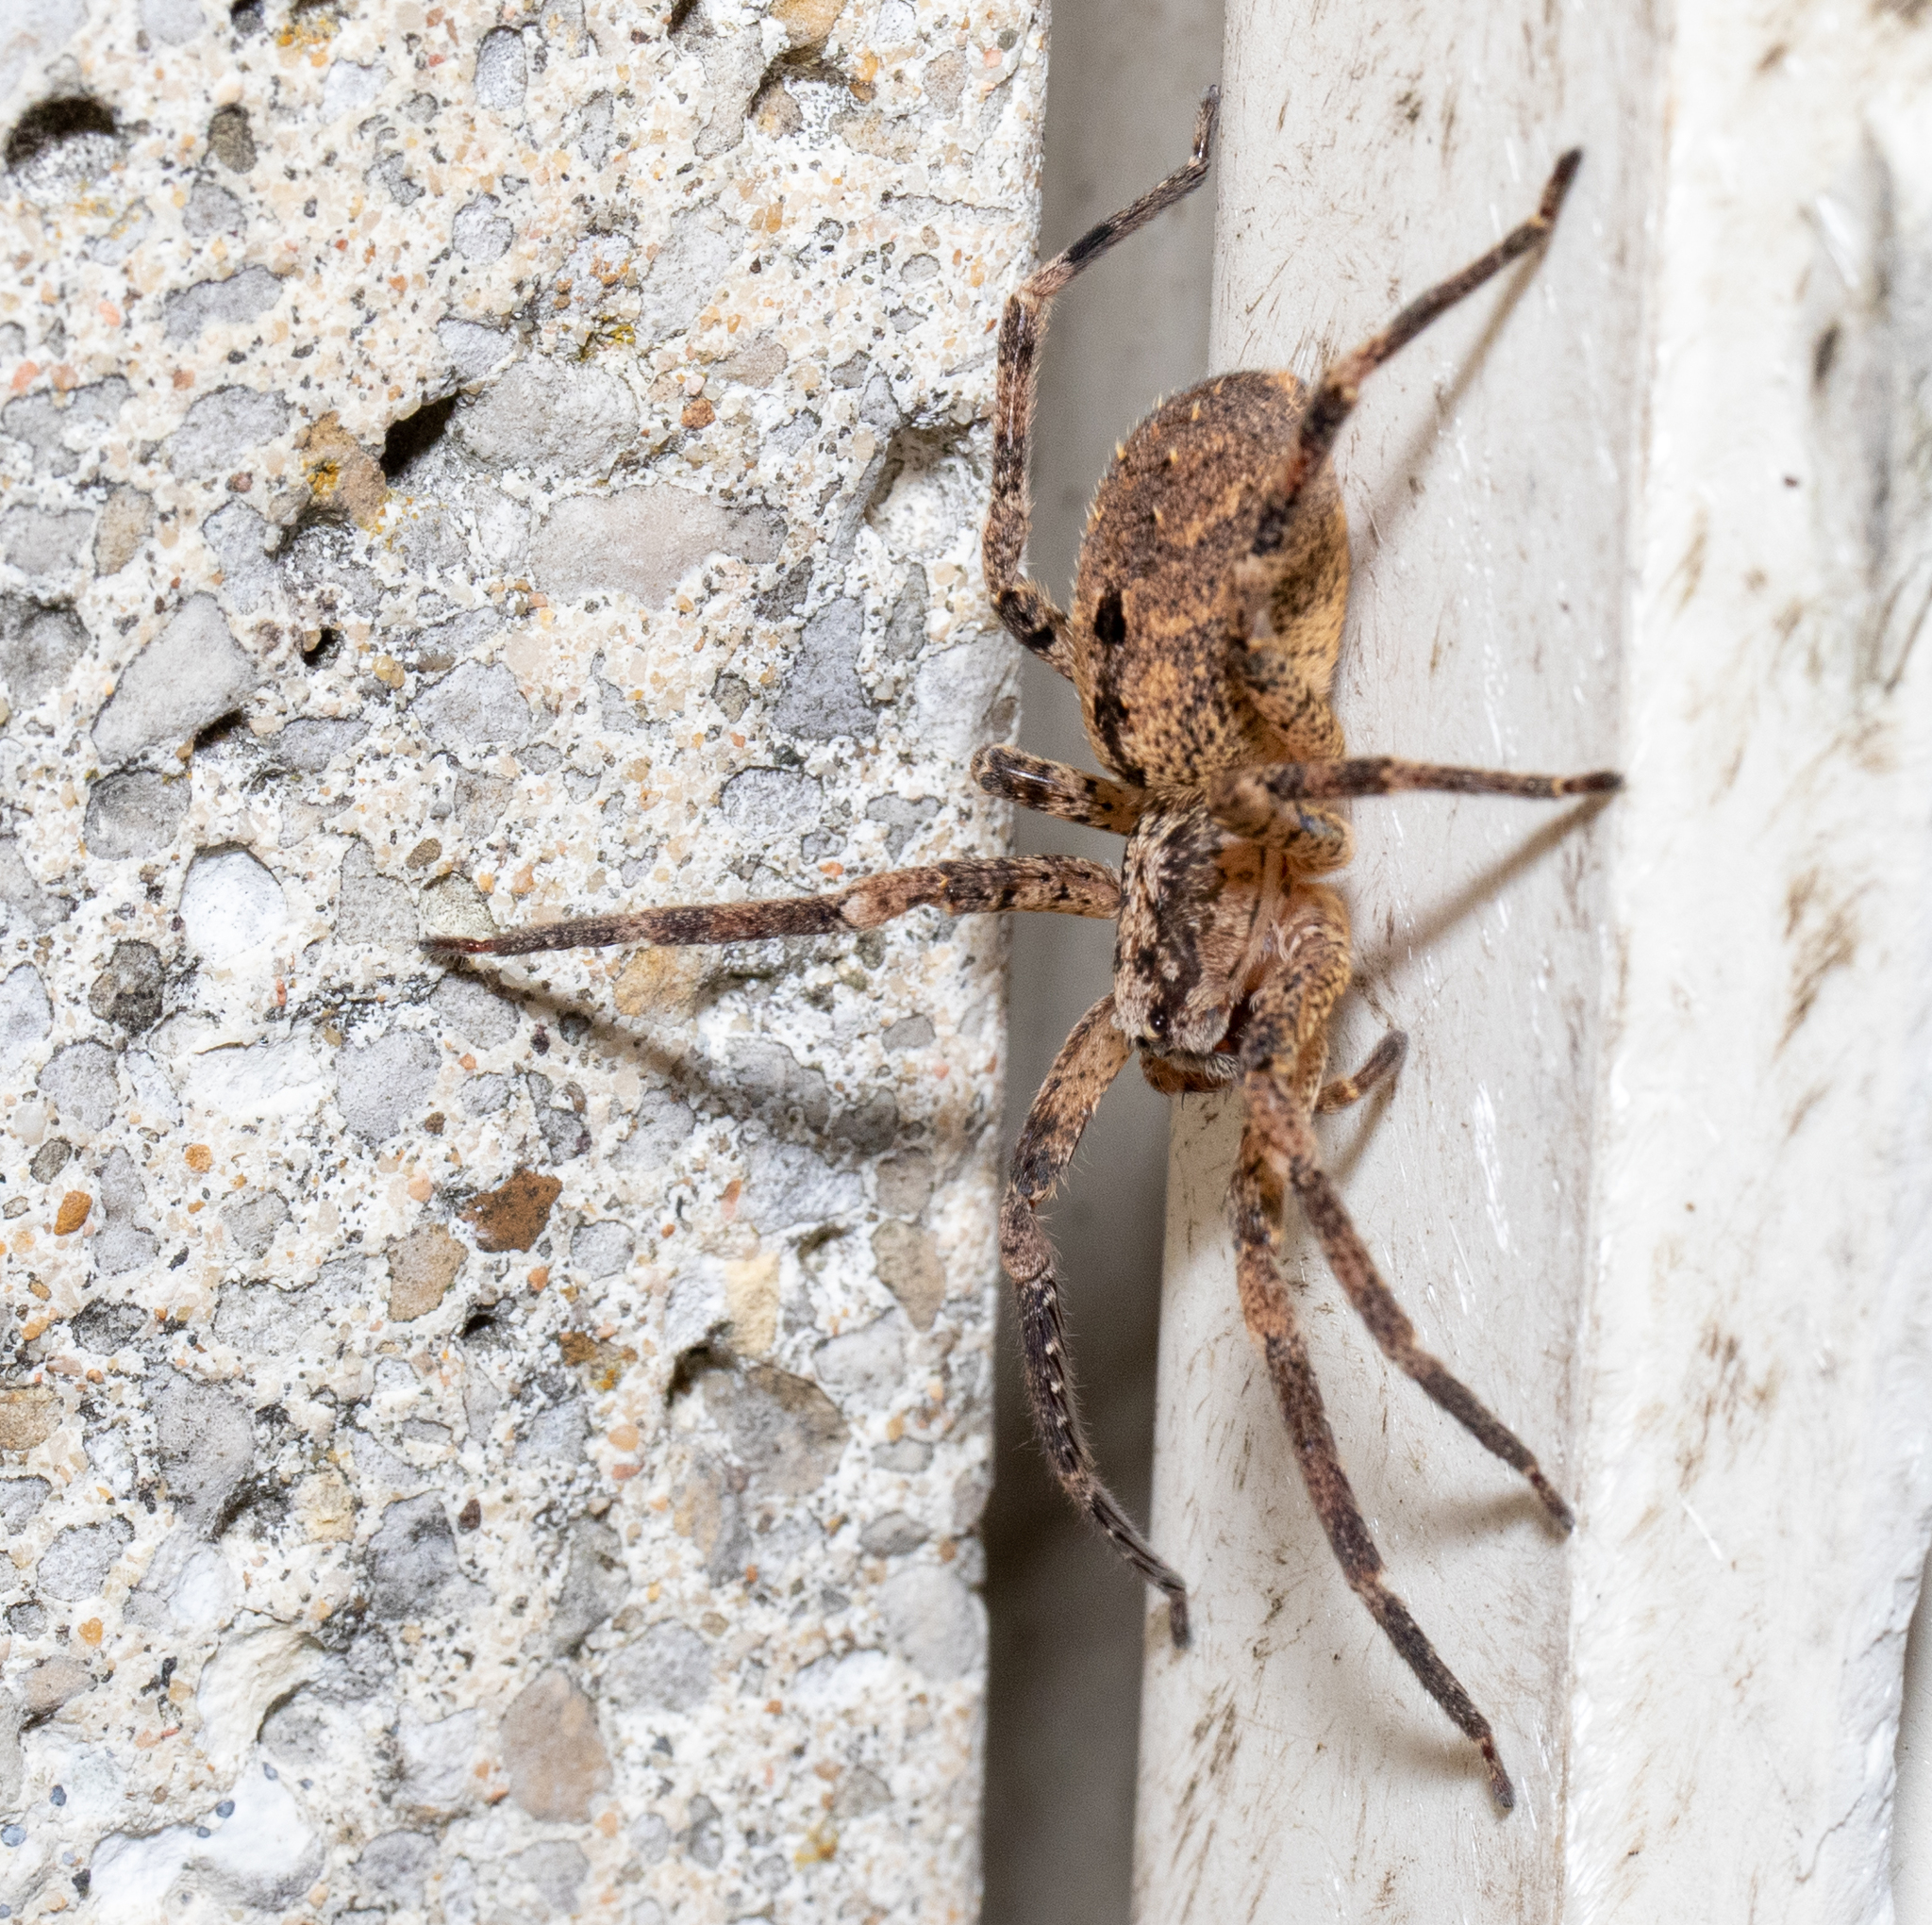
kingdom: Animalia
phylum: Arthropoda
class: Arachnida
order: Araneae
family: Zoropsidae
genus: Zoropsis
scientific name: Zoropsis spinimana
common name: Zoropsid spider
